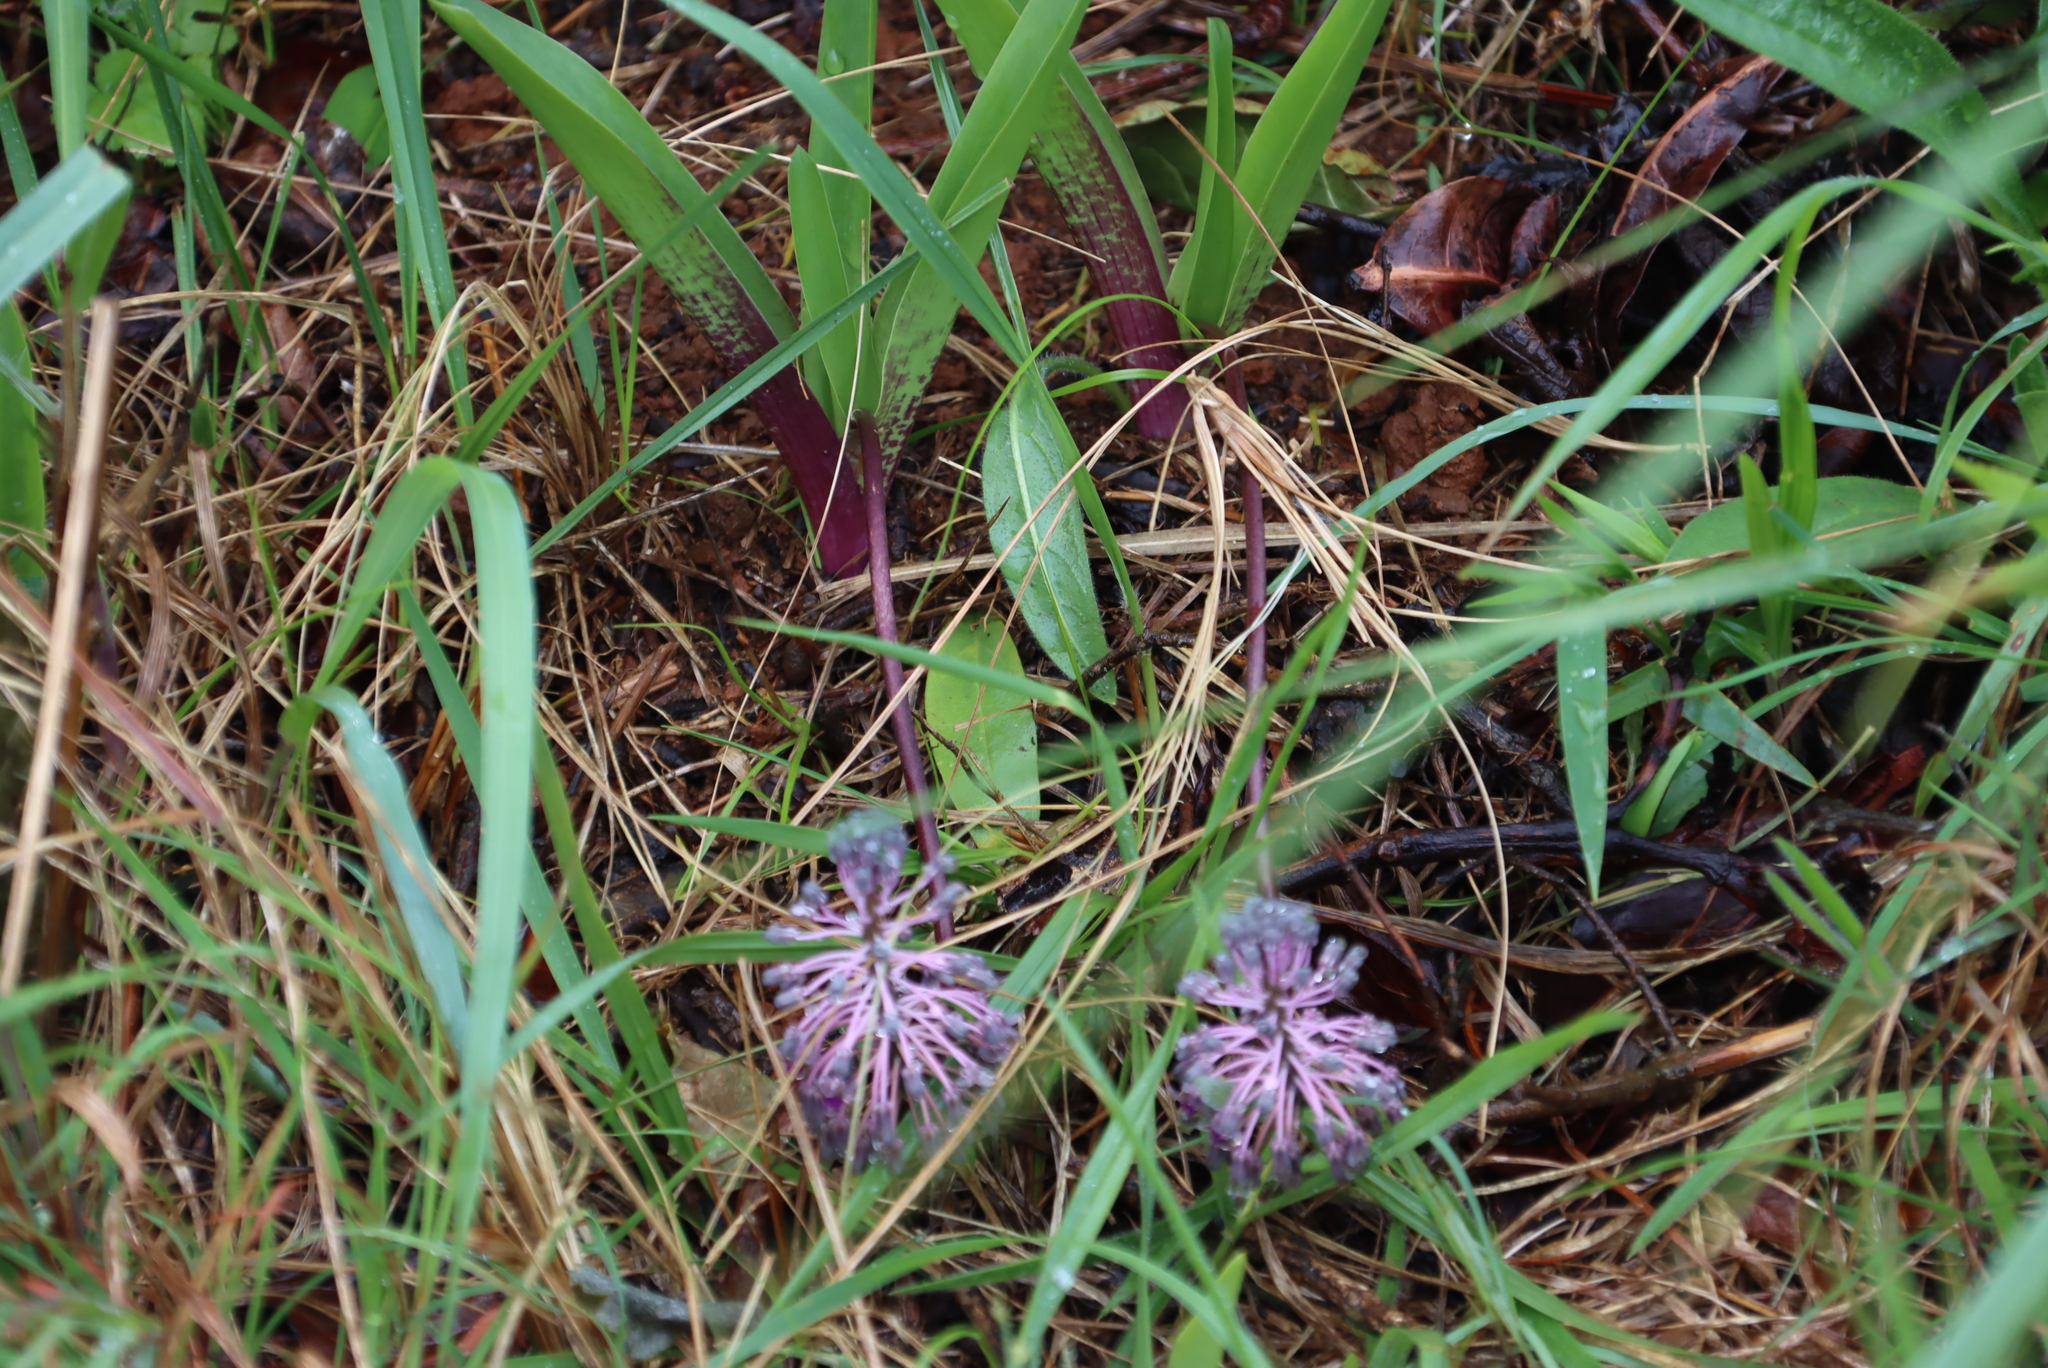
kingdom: Plantae
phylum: Tracheophyta
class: Liliopsida
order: Asparagales
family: Asparagaceae
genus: Ledebouria
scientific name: Ledebouria cooperi
